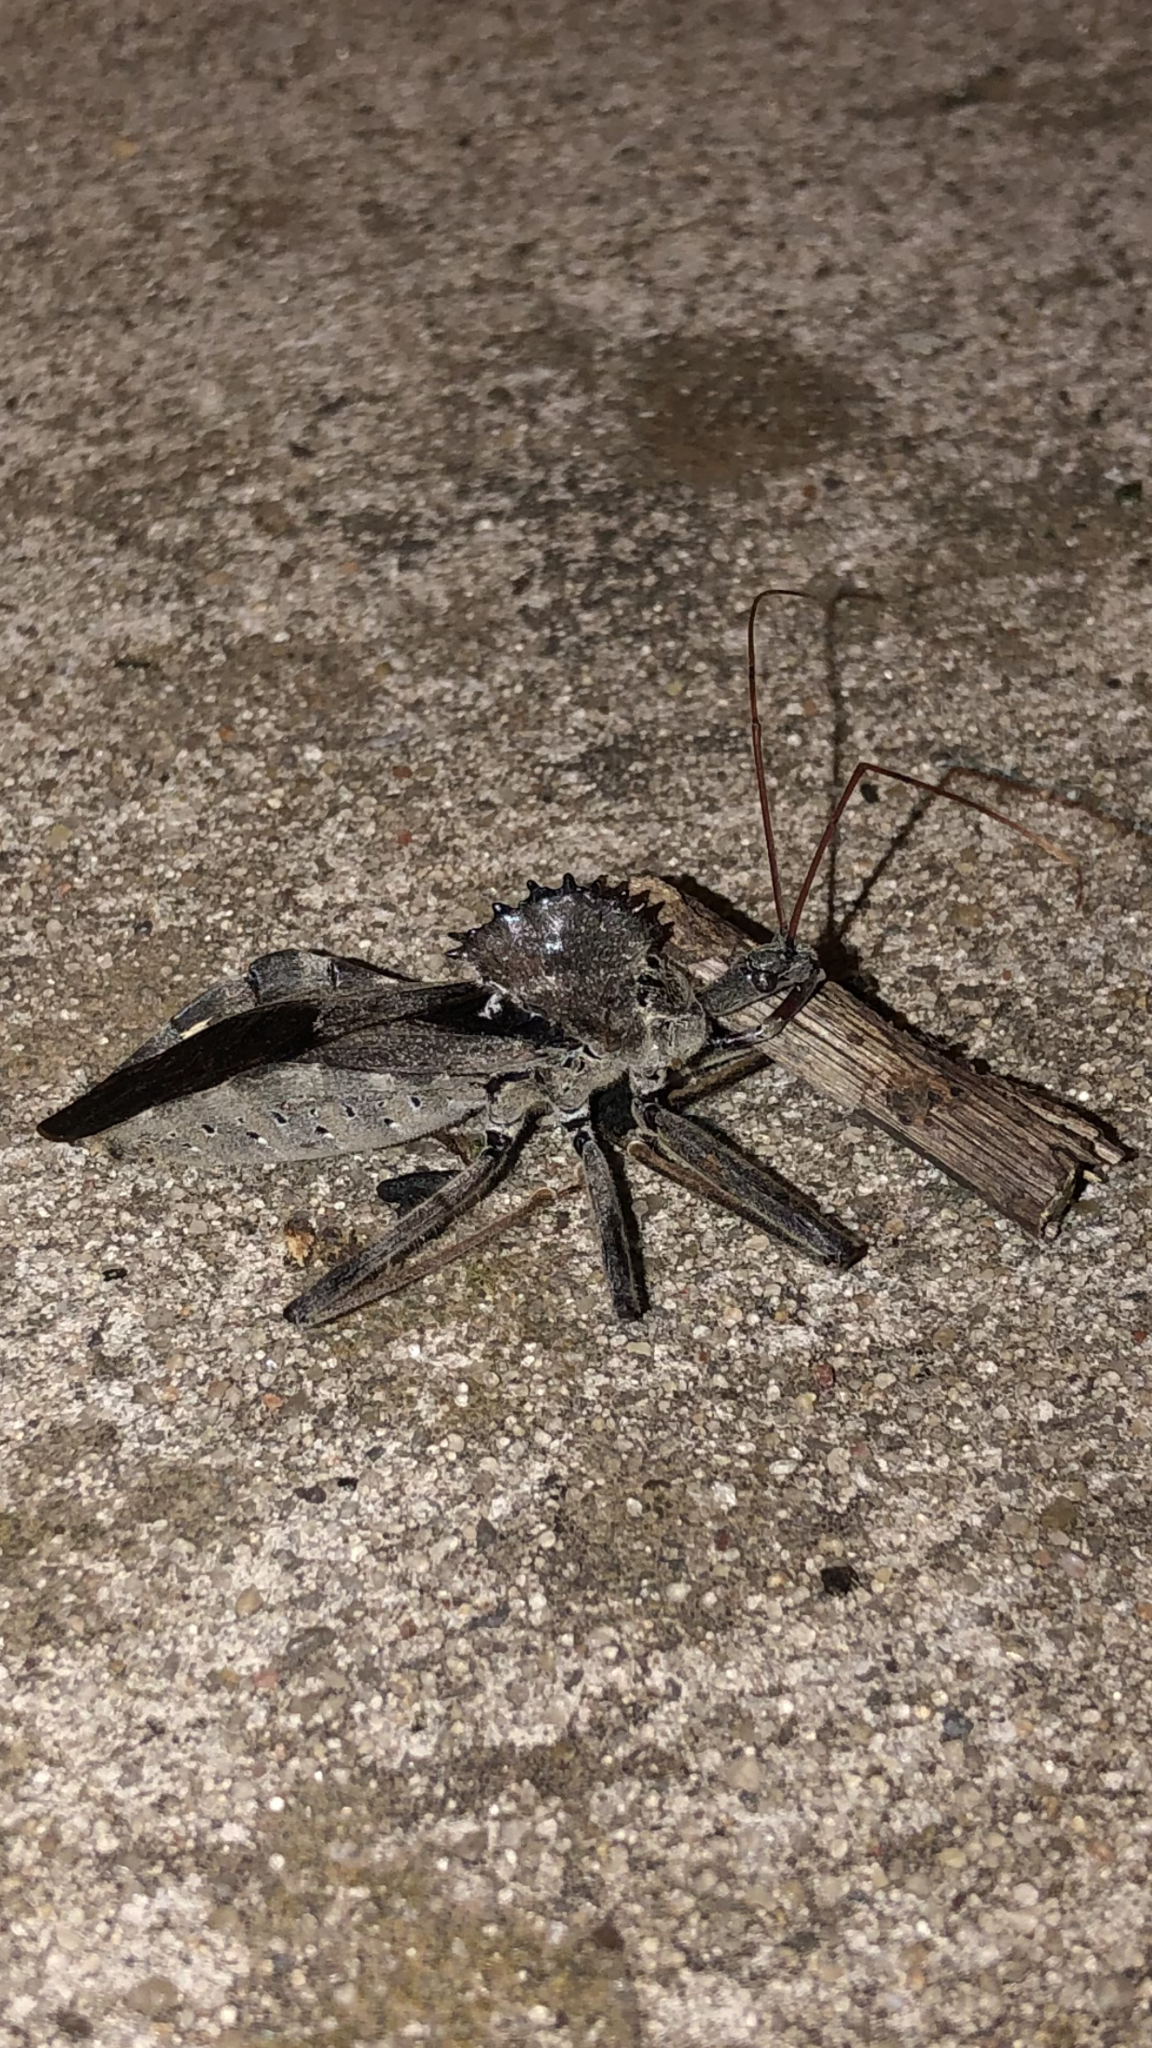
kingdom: Animalia
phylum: Arthropoda
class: Insecta
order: Hemiptera
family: Reduviidae
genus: Arilus
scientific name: Arilus cristatus
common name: North american wheel bug
